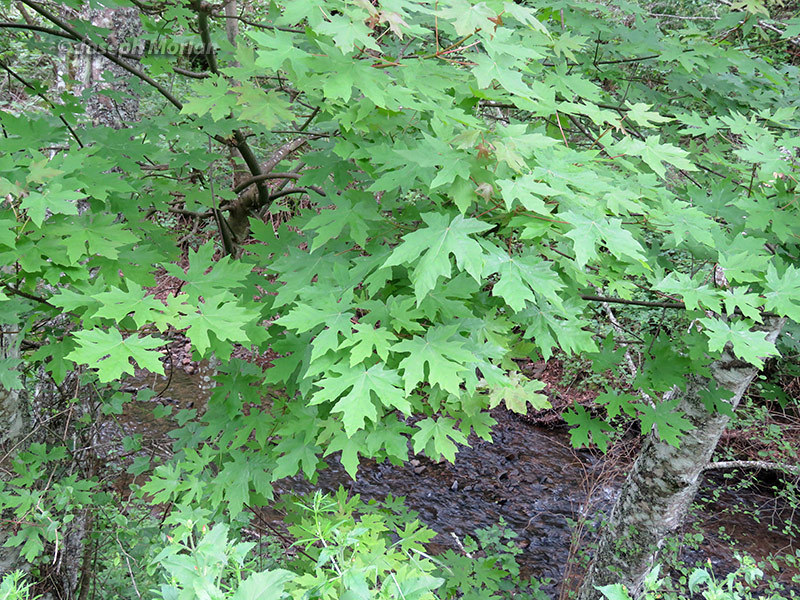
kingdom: Plantae
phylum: Tracheophyta
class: Magnoliopsida
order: Sapindales
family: Sapindaceae
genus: Acer
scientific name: Acer macrophyllum
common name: Oregon maple
